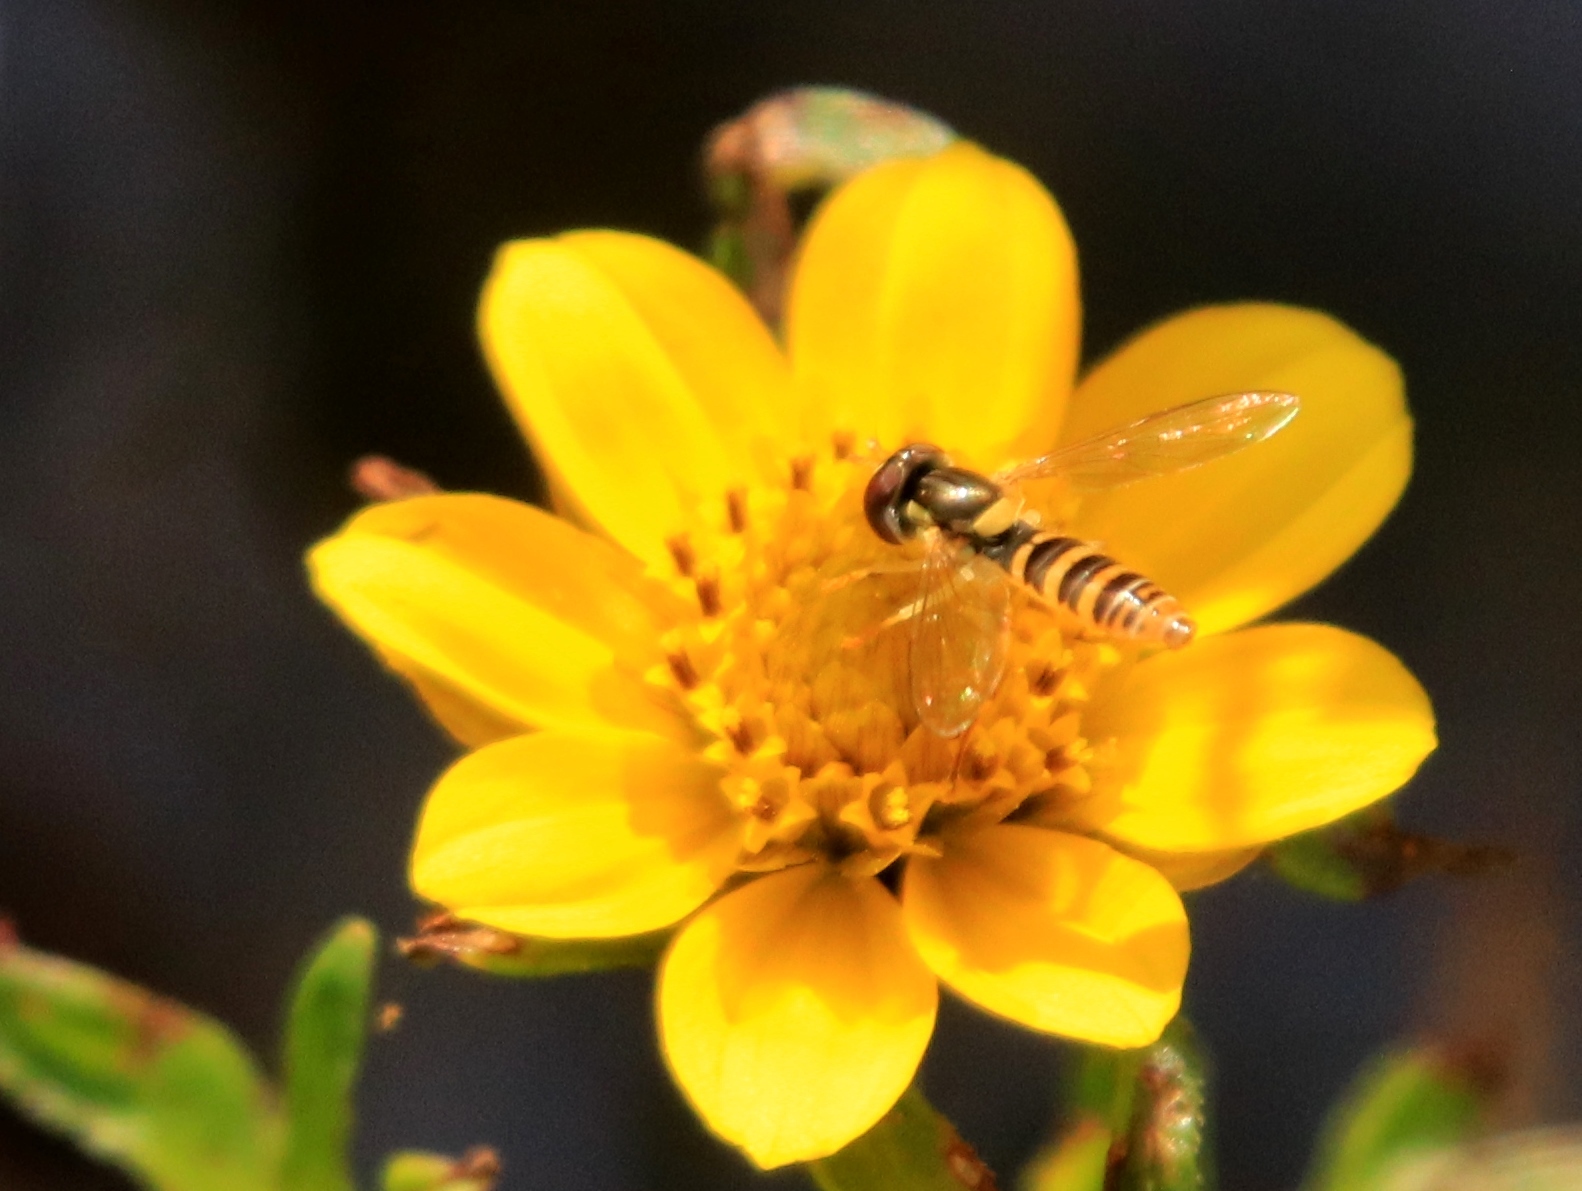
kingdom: Animalia
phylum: Arthropoda
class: Insecta
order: Diptera
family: Syrphidae
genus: Sphaerophoria
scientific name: Sphaerophoria contigua
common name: Tufted globetail
